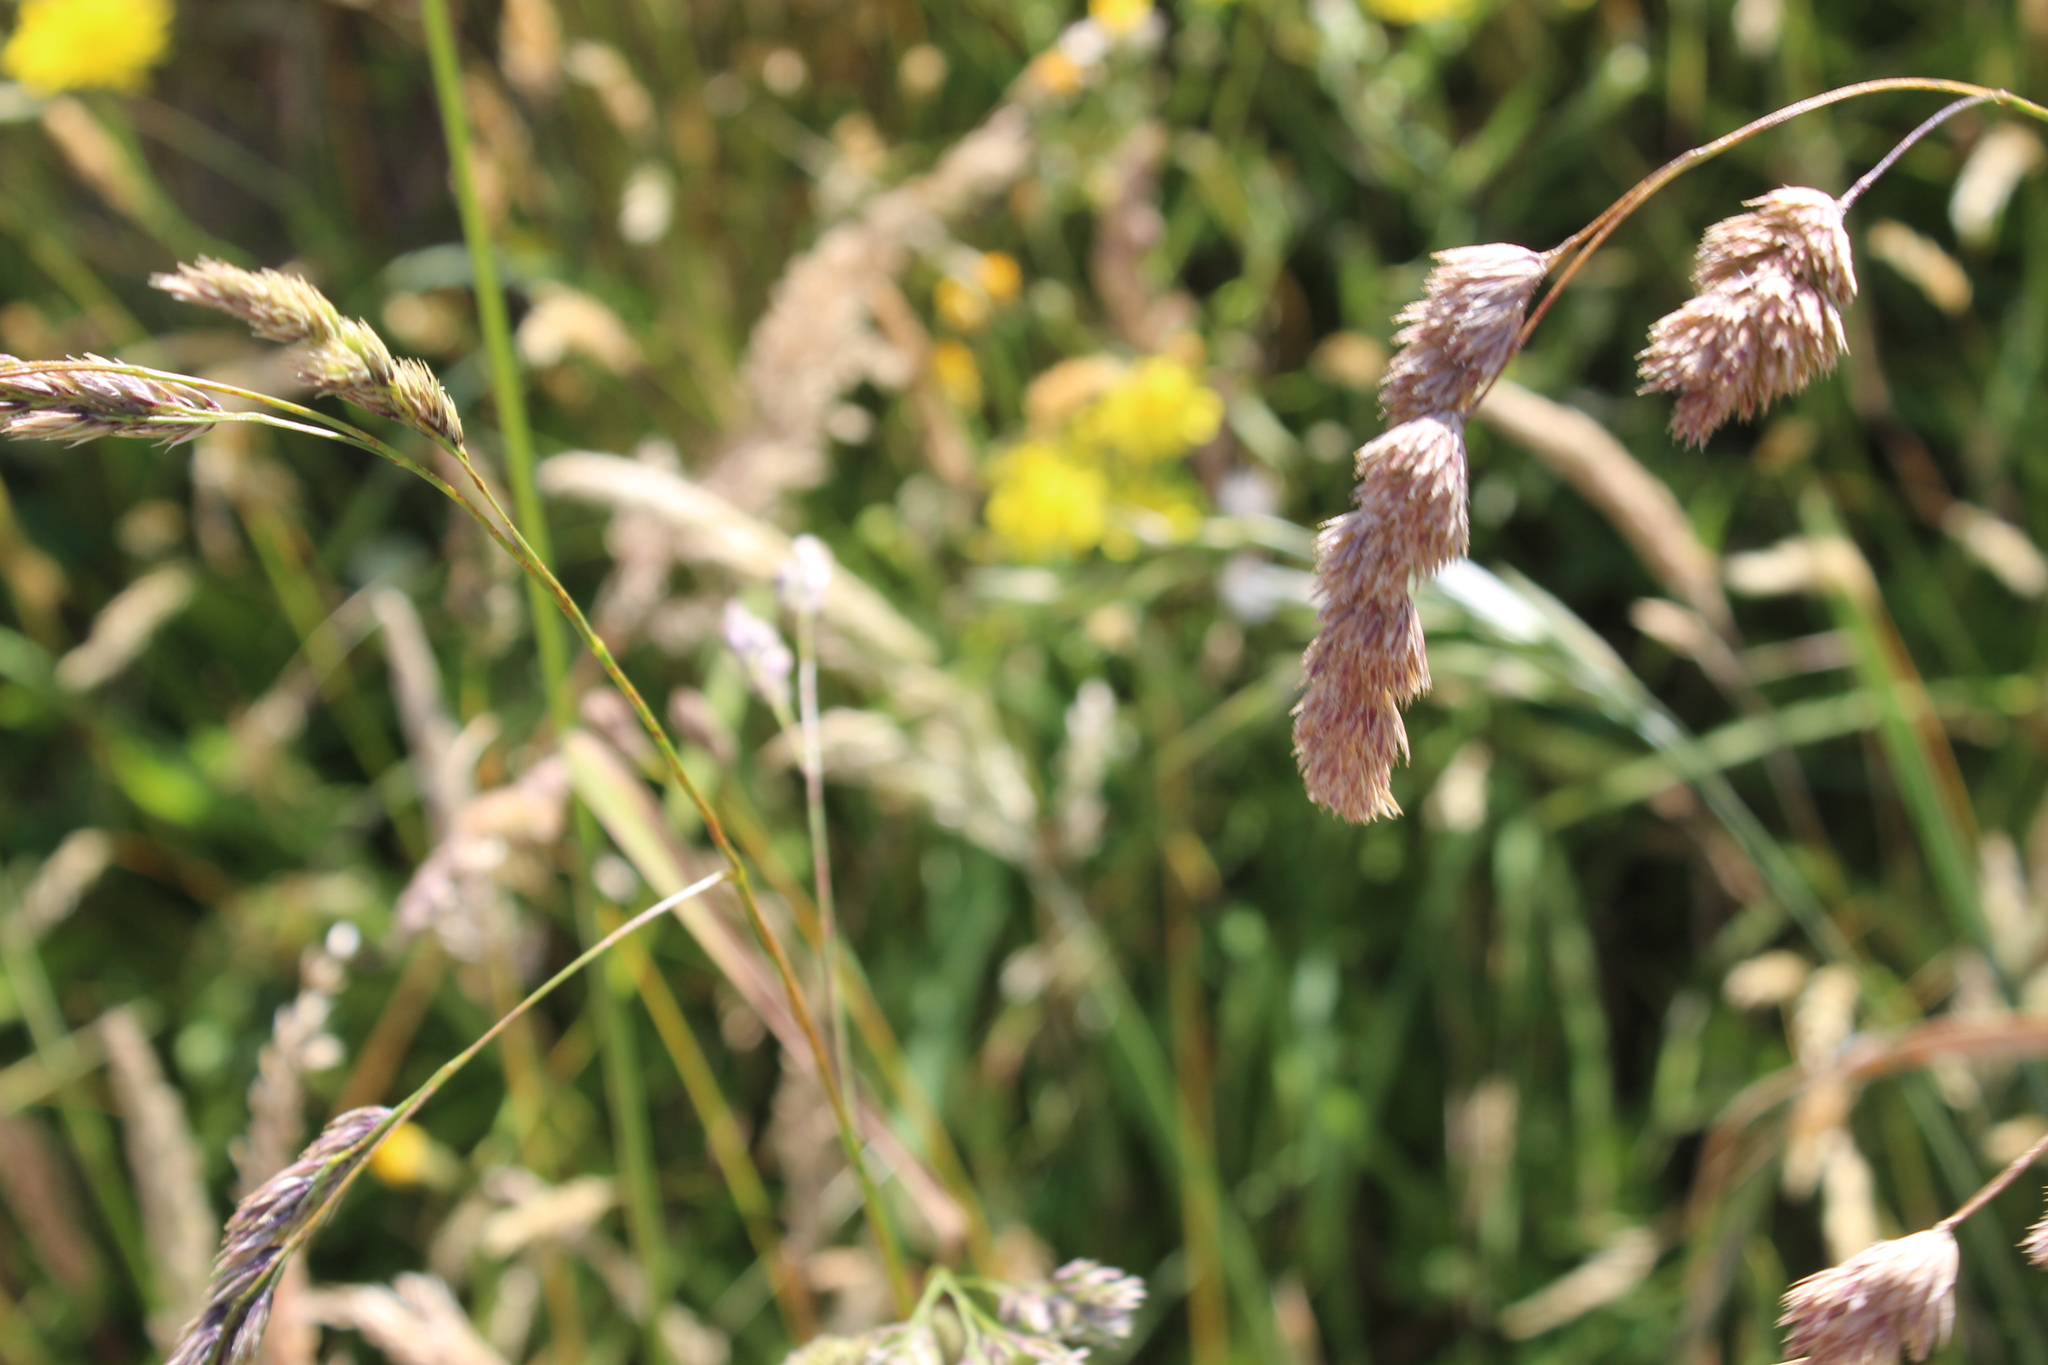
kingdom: Plantae
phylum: Tracheophyta
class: Liliopsida
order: Poales
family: Poaceae
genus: Dactylis
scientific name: Dactylis glomerata
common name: Orchardgrass
